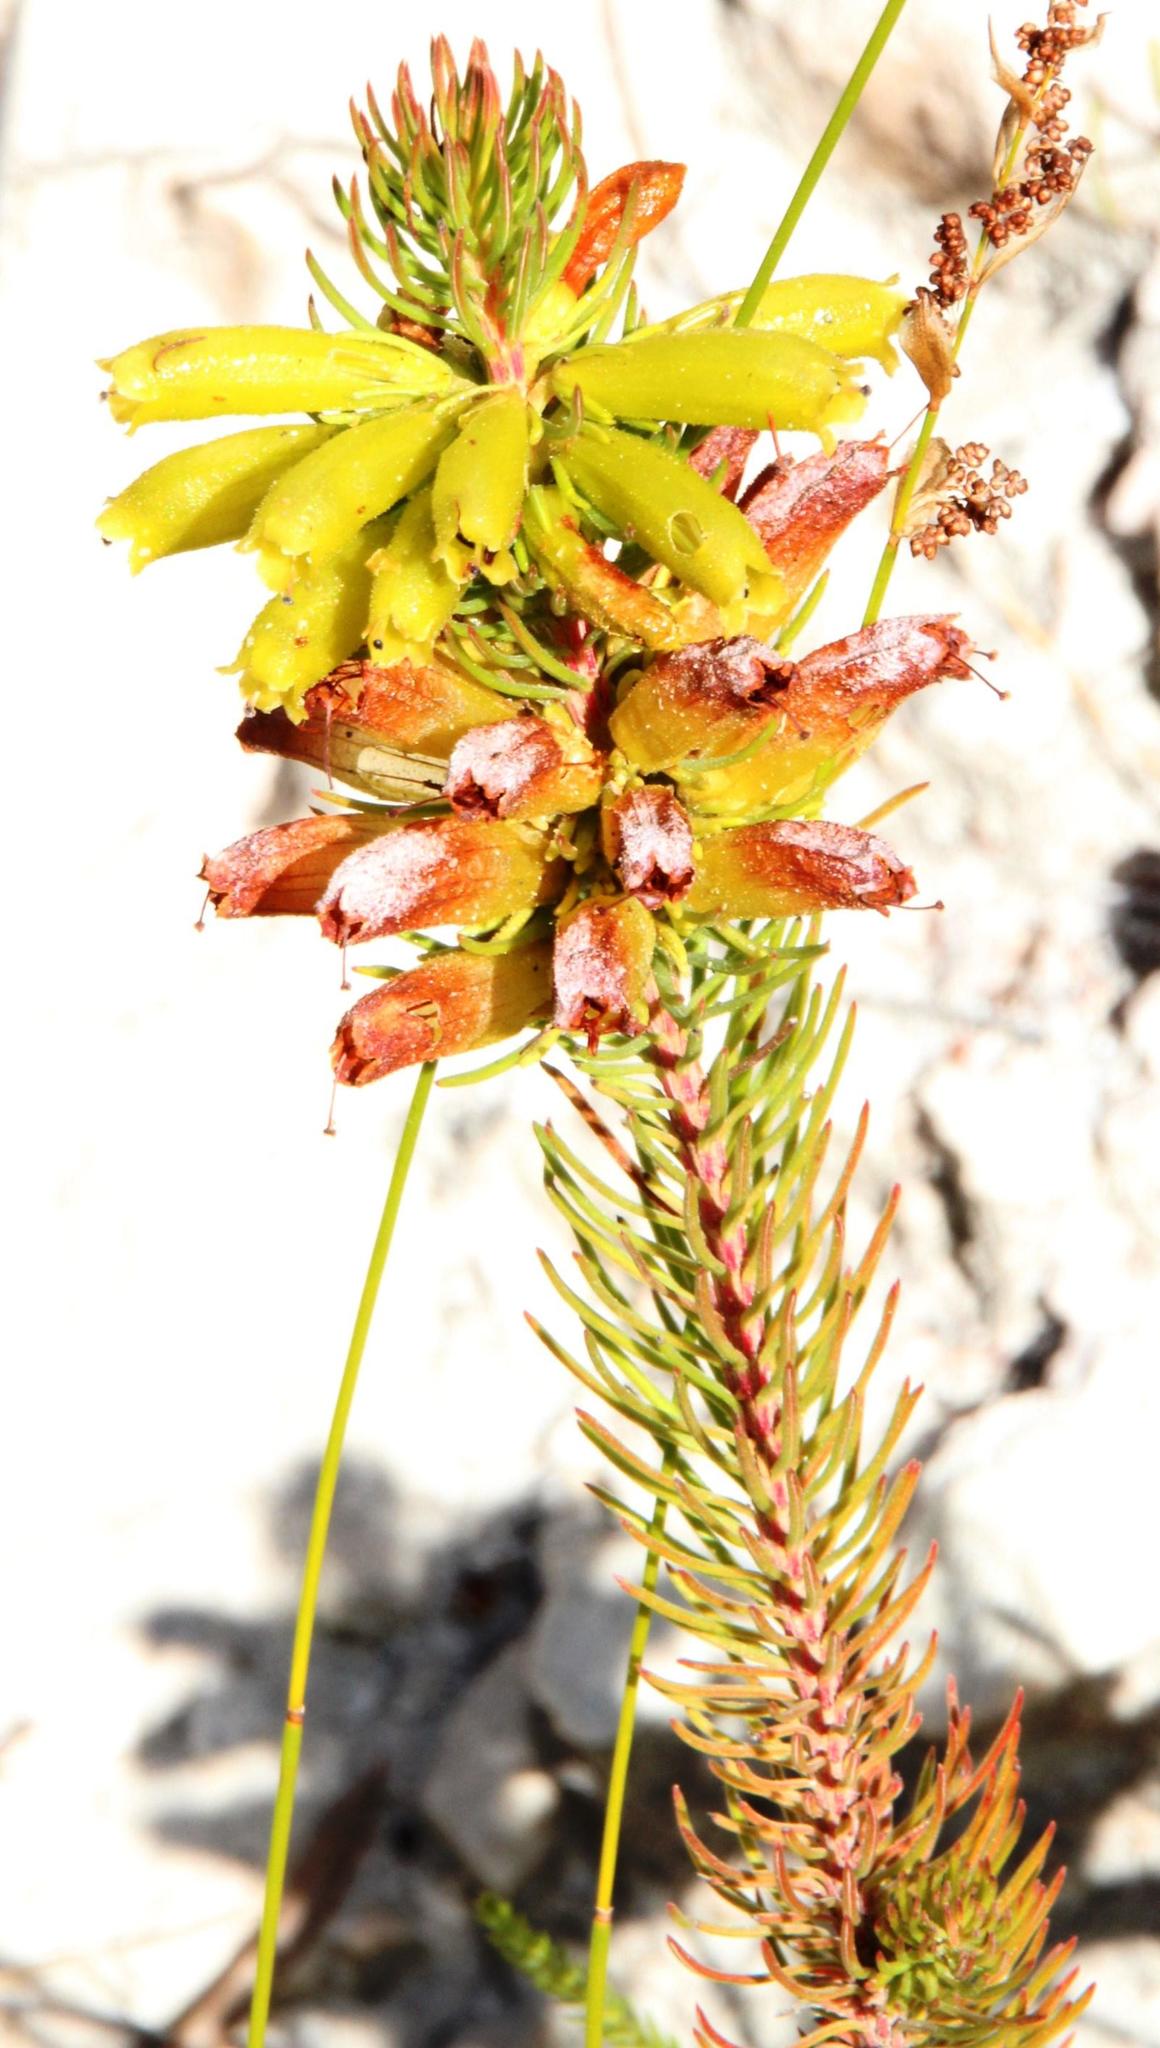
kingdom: Plantae
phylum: Tracheophyta
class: Magnoliopsida
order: Ericales
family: Ericaceae
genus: Erica
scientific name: Erica viscaria
